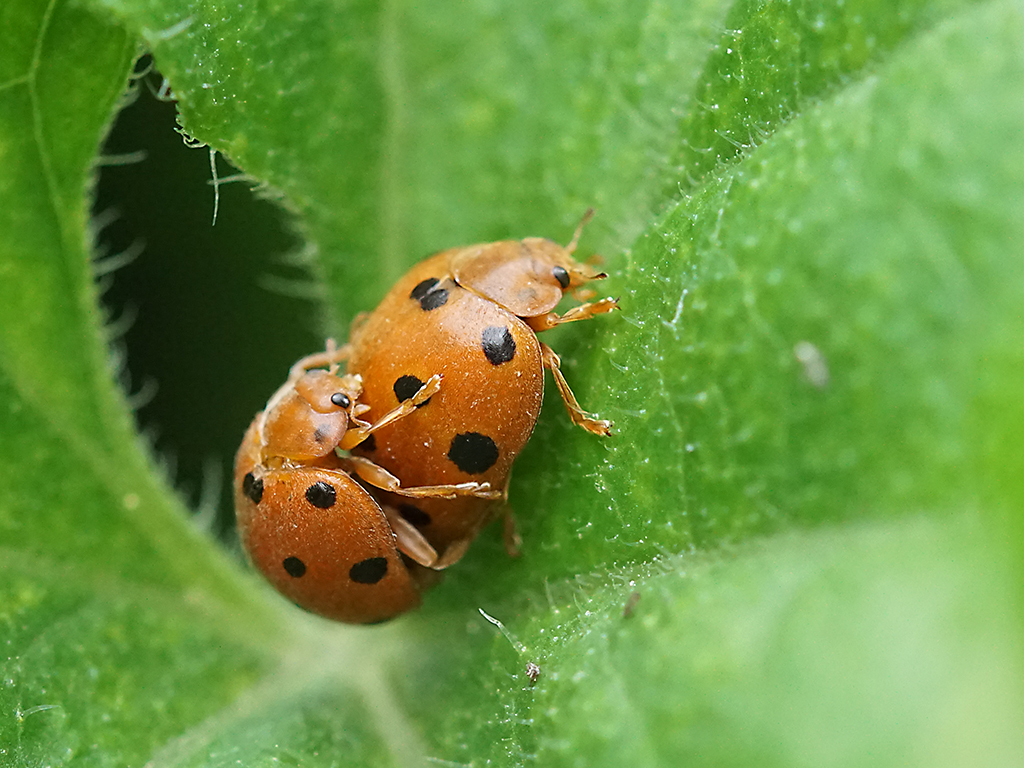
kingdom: Animalia
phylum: Arthropoda
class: Insecta
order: Coleoptera
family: Coccinellidae
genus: Henosepilachna
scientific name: Henosepilachna argus
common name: Bryony ladybird
